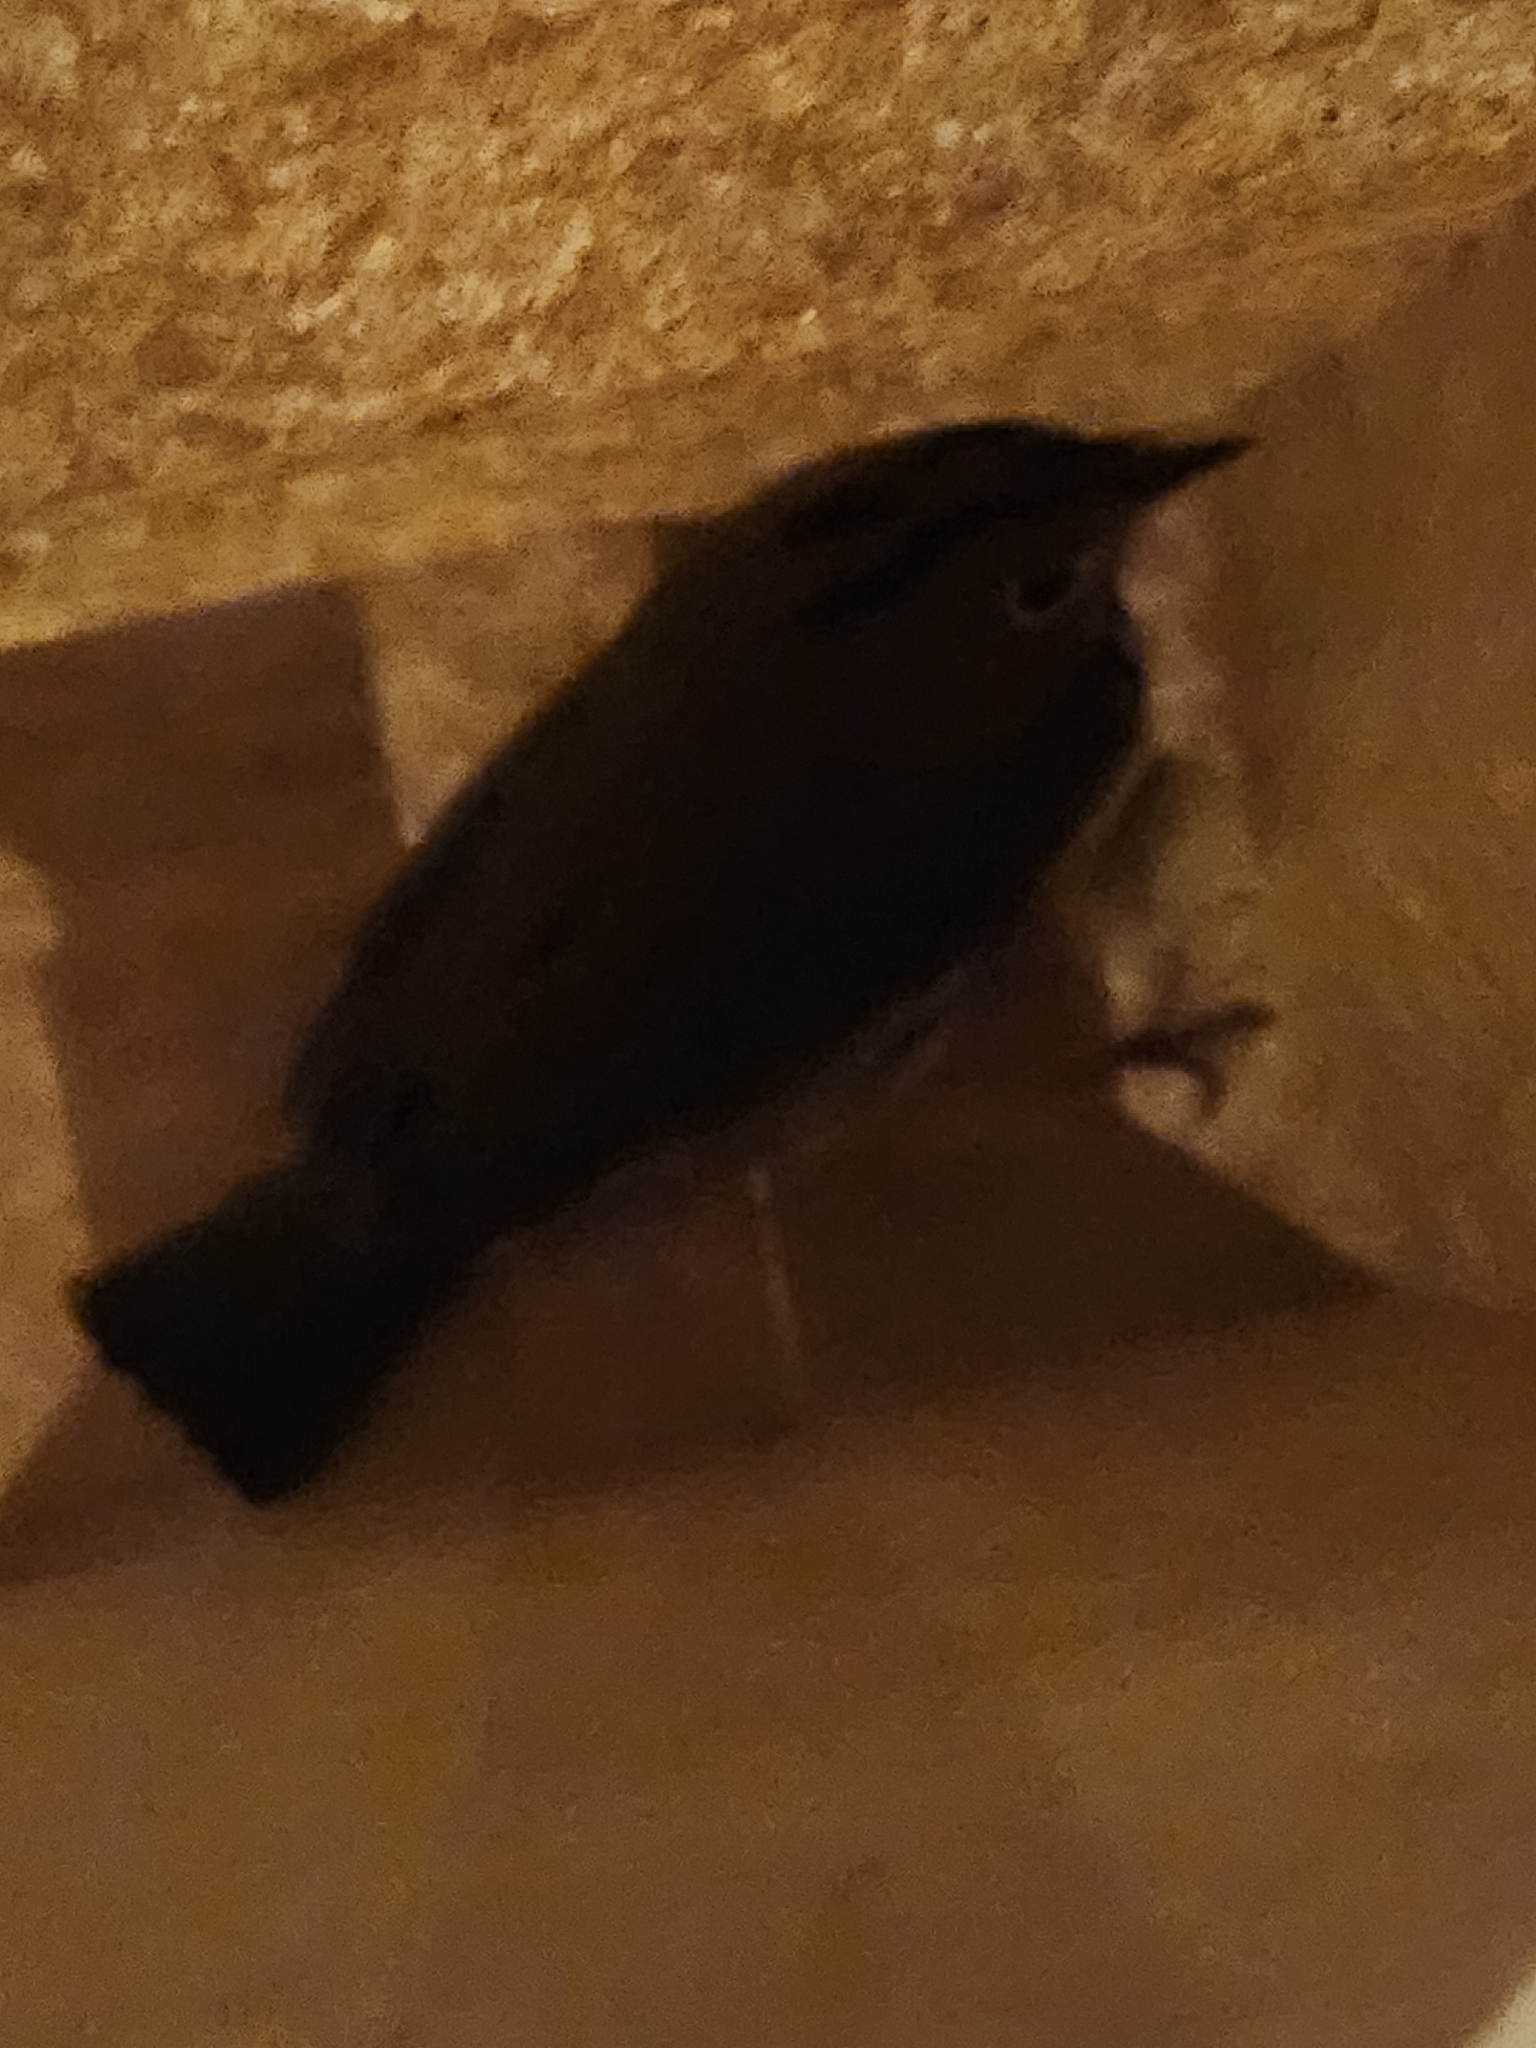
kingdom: Animalia
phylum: Chordata
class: Aves
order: Passeriformes
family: Parulidae
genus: Seiurus
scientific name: Seiurus aurocapilla
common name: Ovenbird
